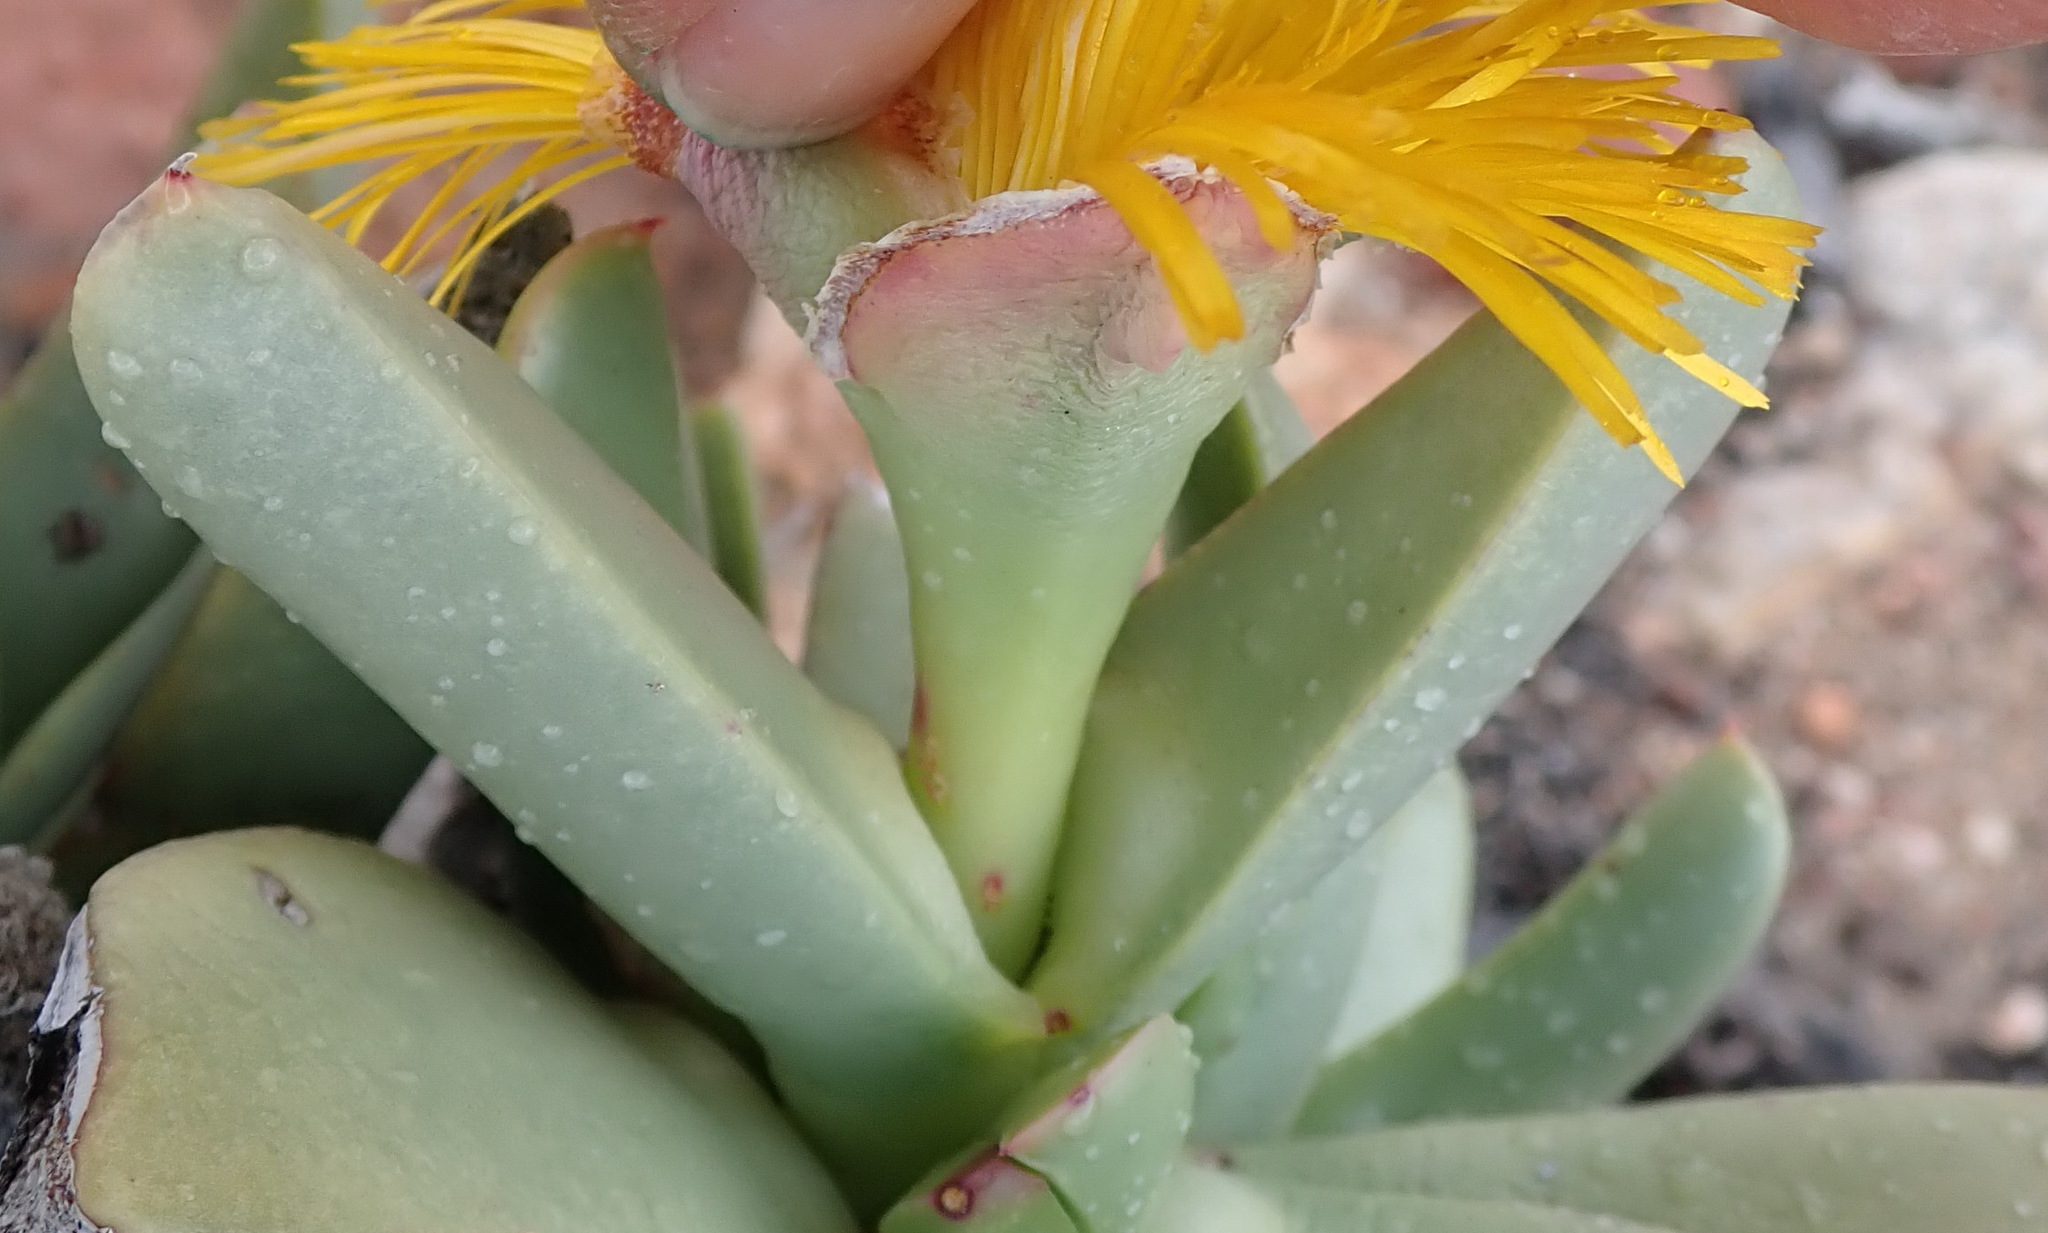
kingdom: Plantae
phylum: Tracheophyta
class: Magnoliopsida
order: Caryophyllales
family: Aizoaceae
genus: Machairophyllum
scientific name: Machairophyllum albidum
